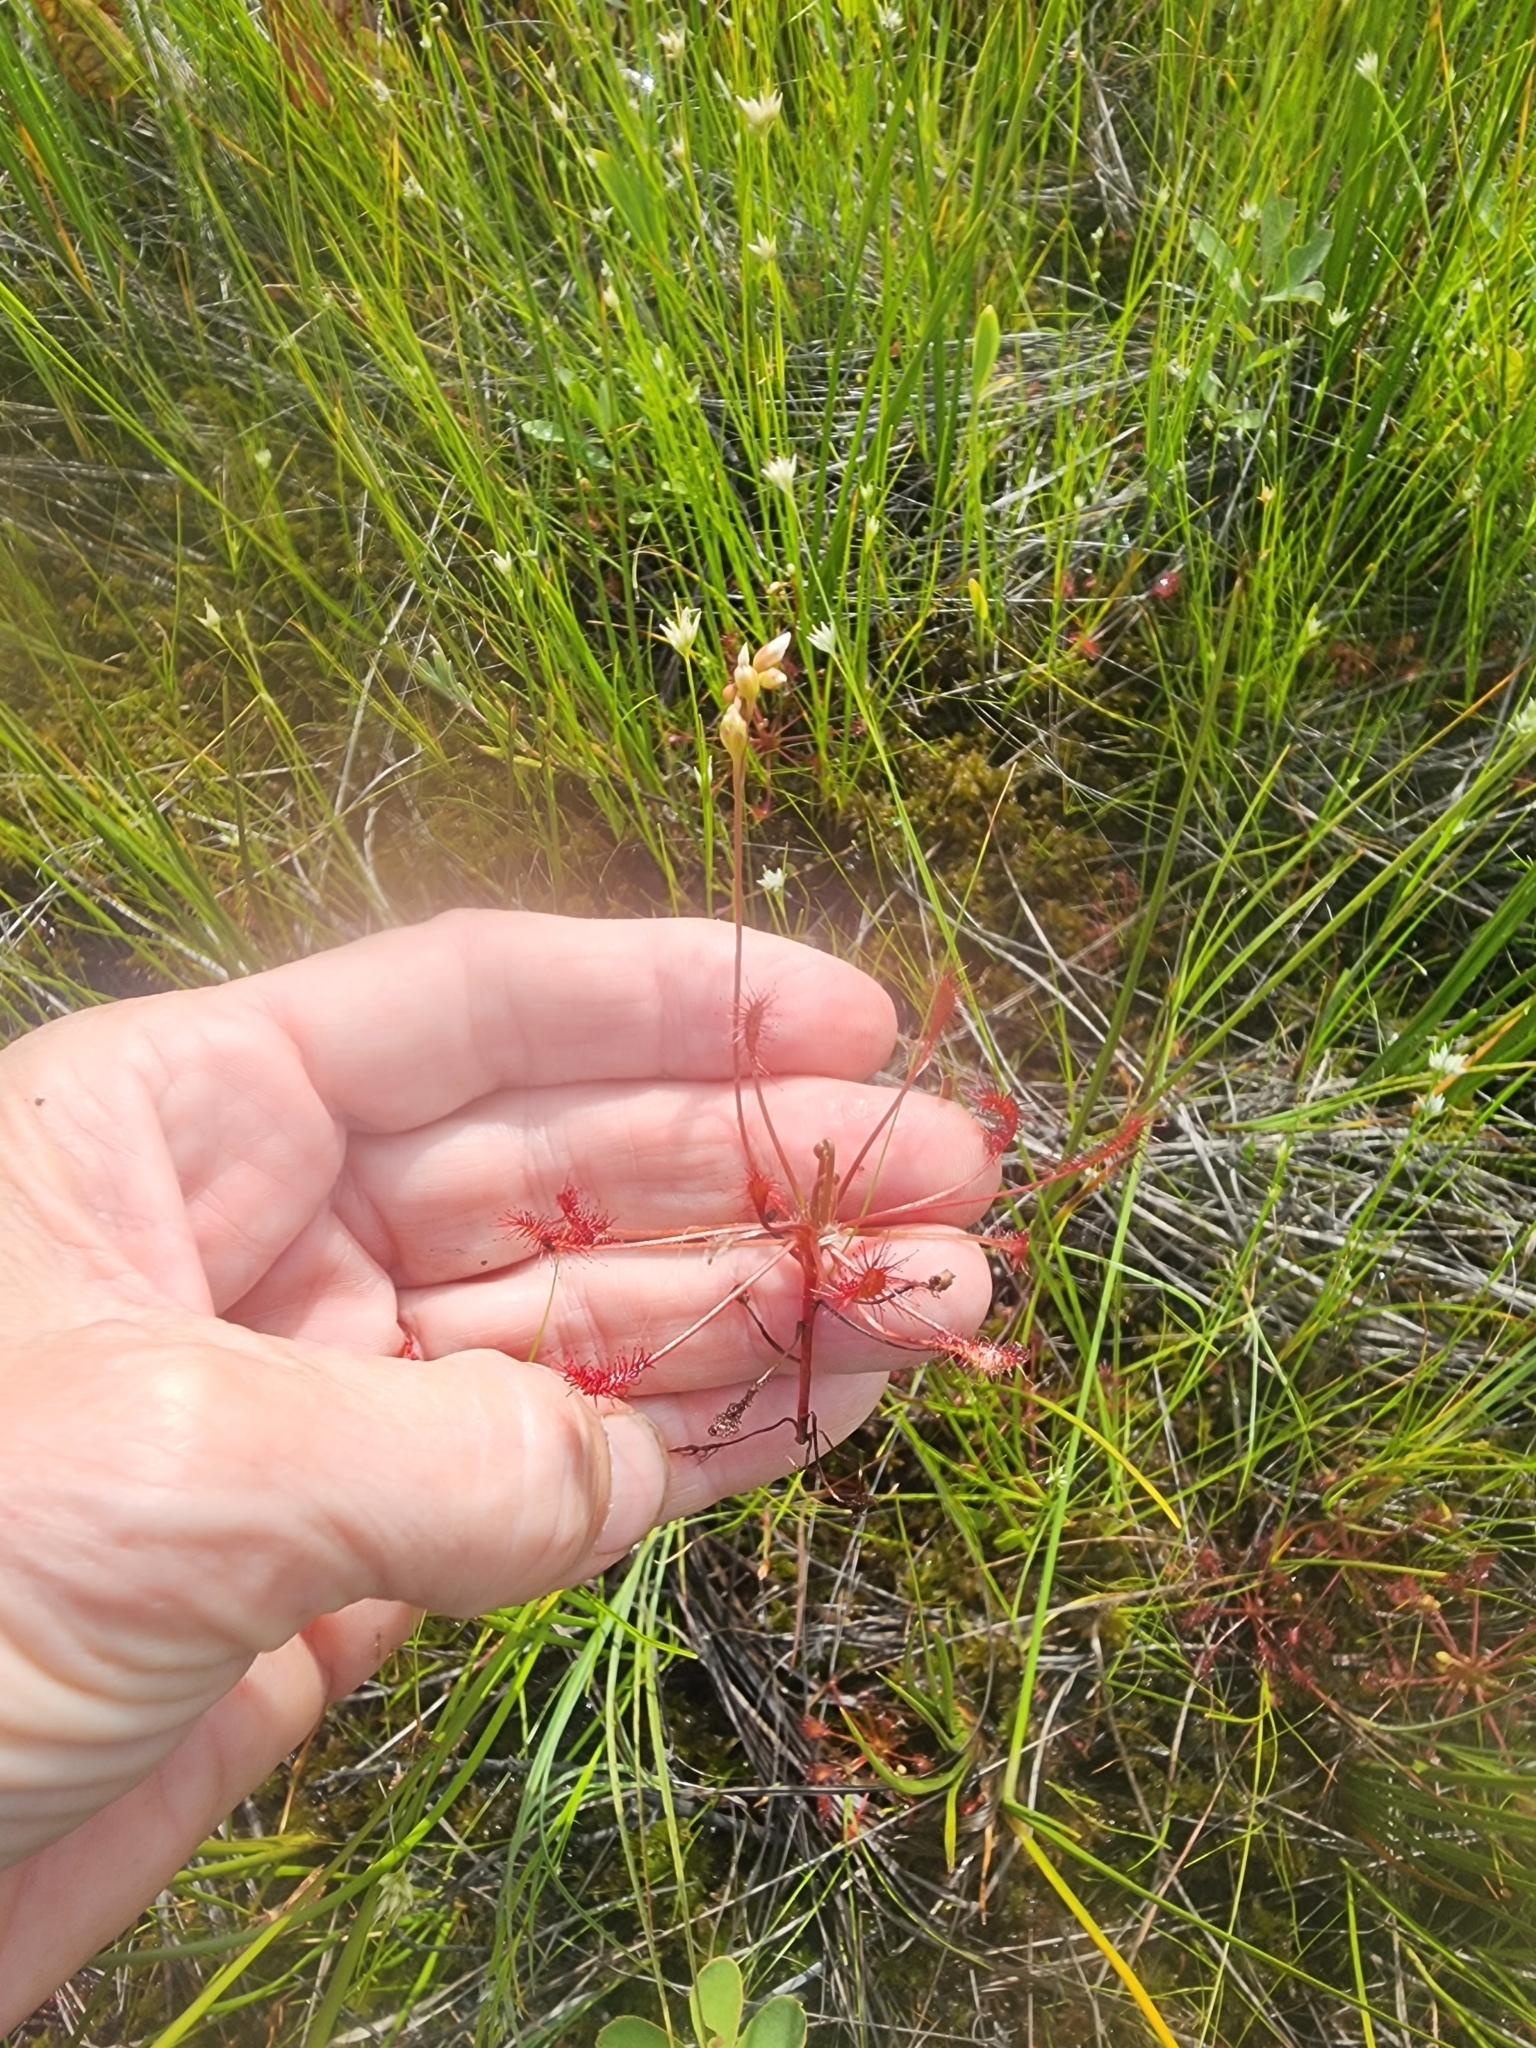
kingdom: Plantae
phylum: Tracheophyta
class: Magnoliopsida
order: Caryophyllales
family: Droseraceae
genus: Drosera
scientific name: Drosera intermedia
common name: Oblong-leaved sundew
